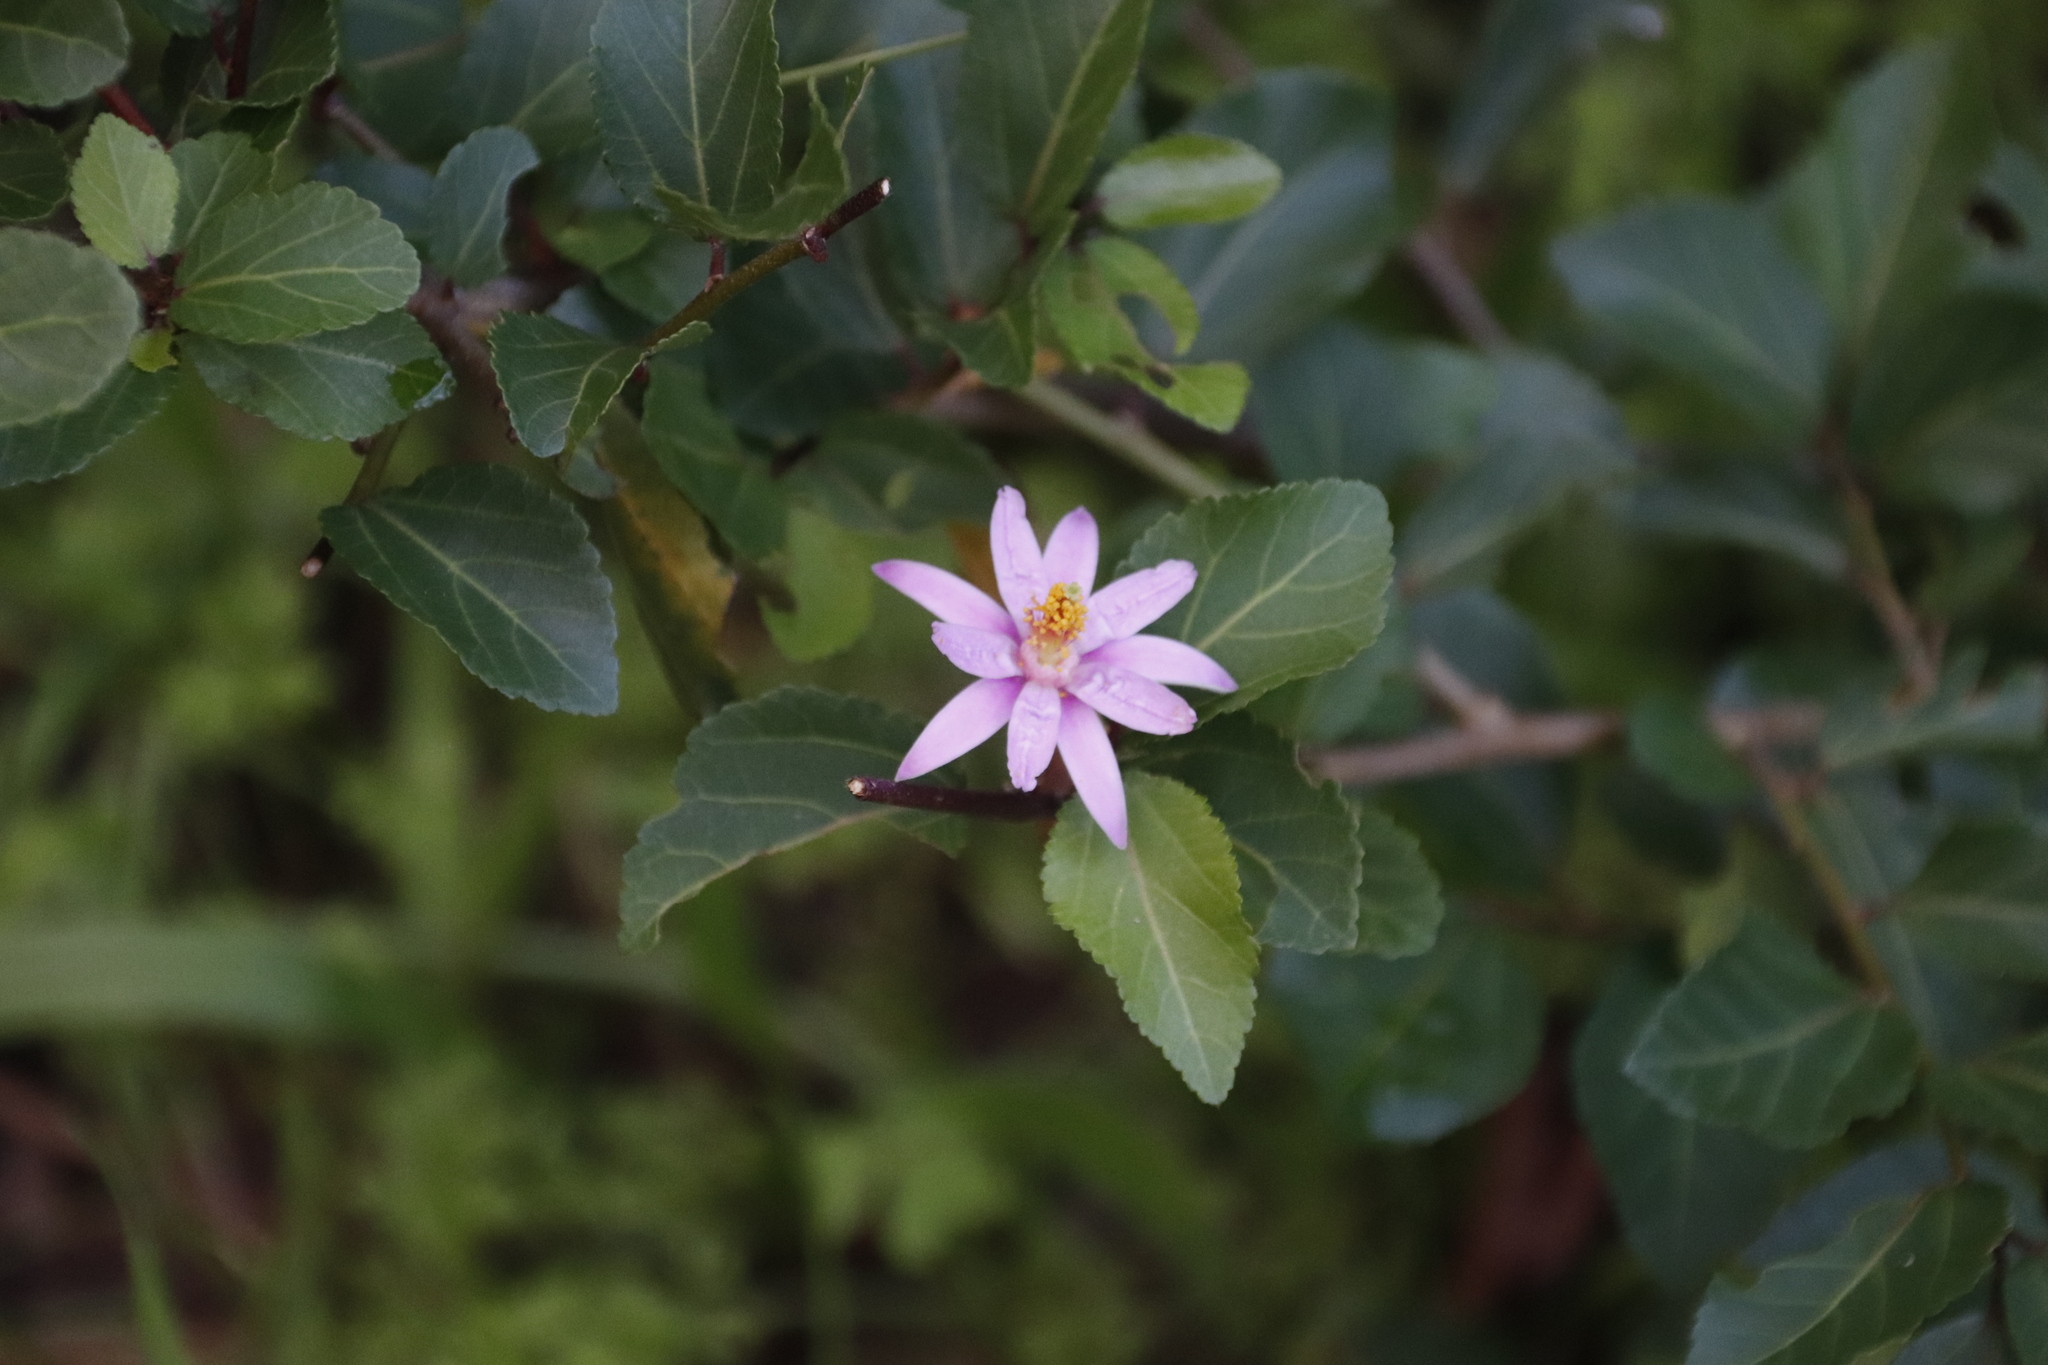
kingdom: Plantae
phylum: Tracheophyta
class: Magnoliopsida
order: Malvales
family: Malvaceae
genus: Grewia
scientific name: Grewia occidentalis
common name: Crossberry
